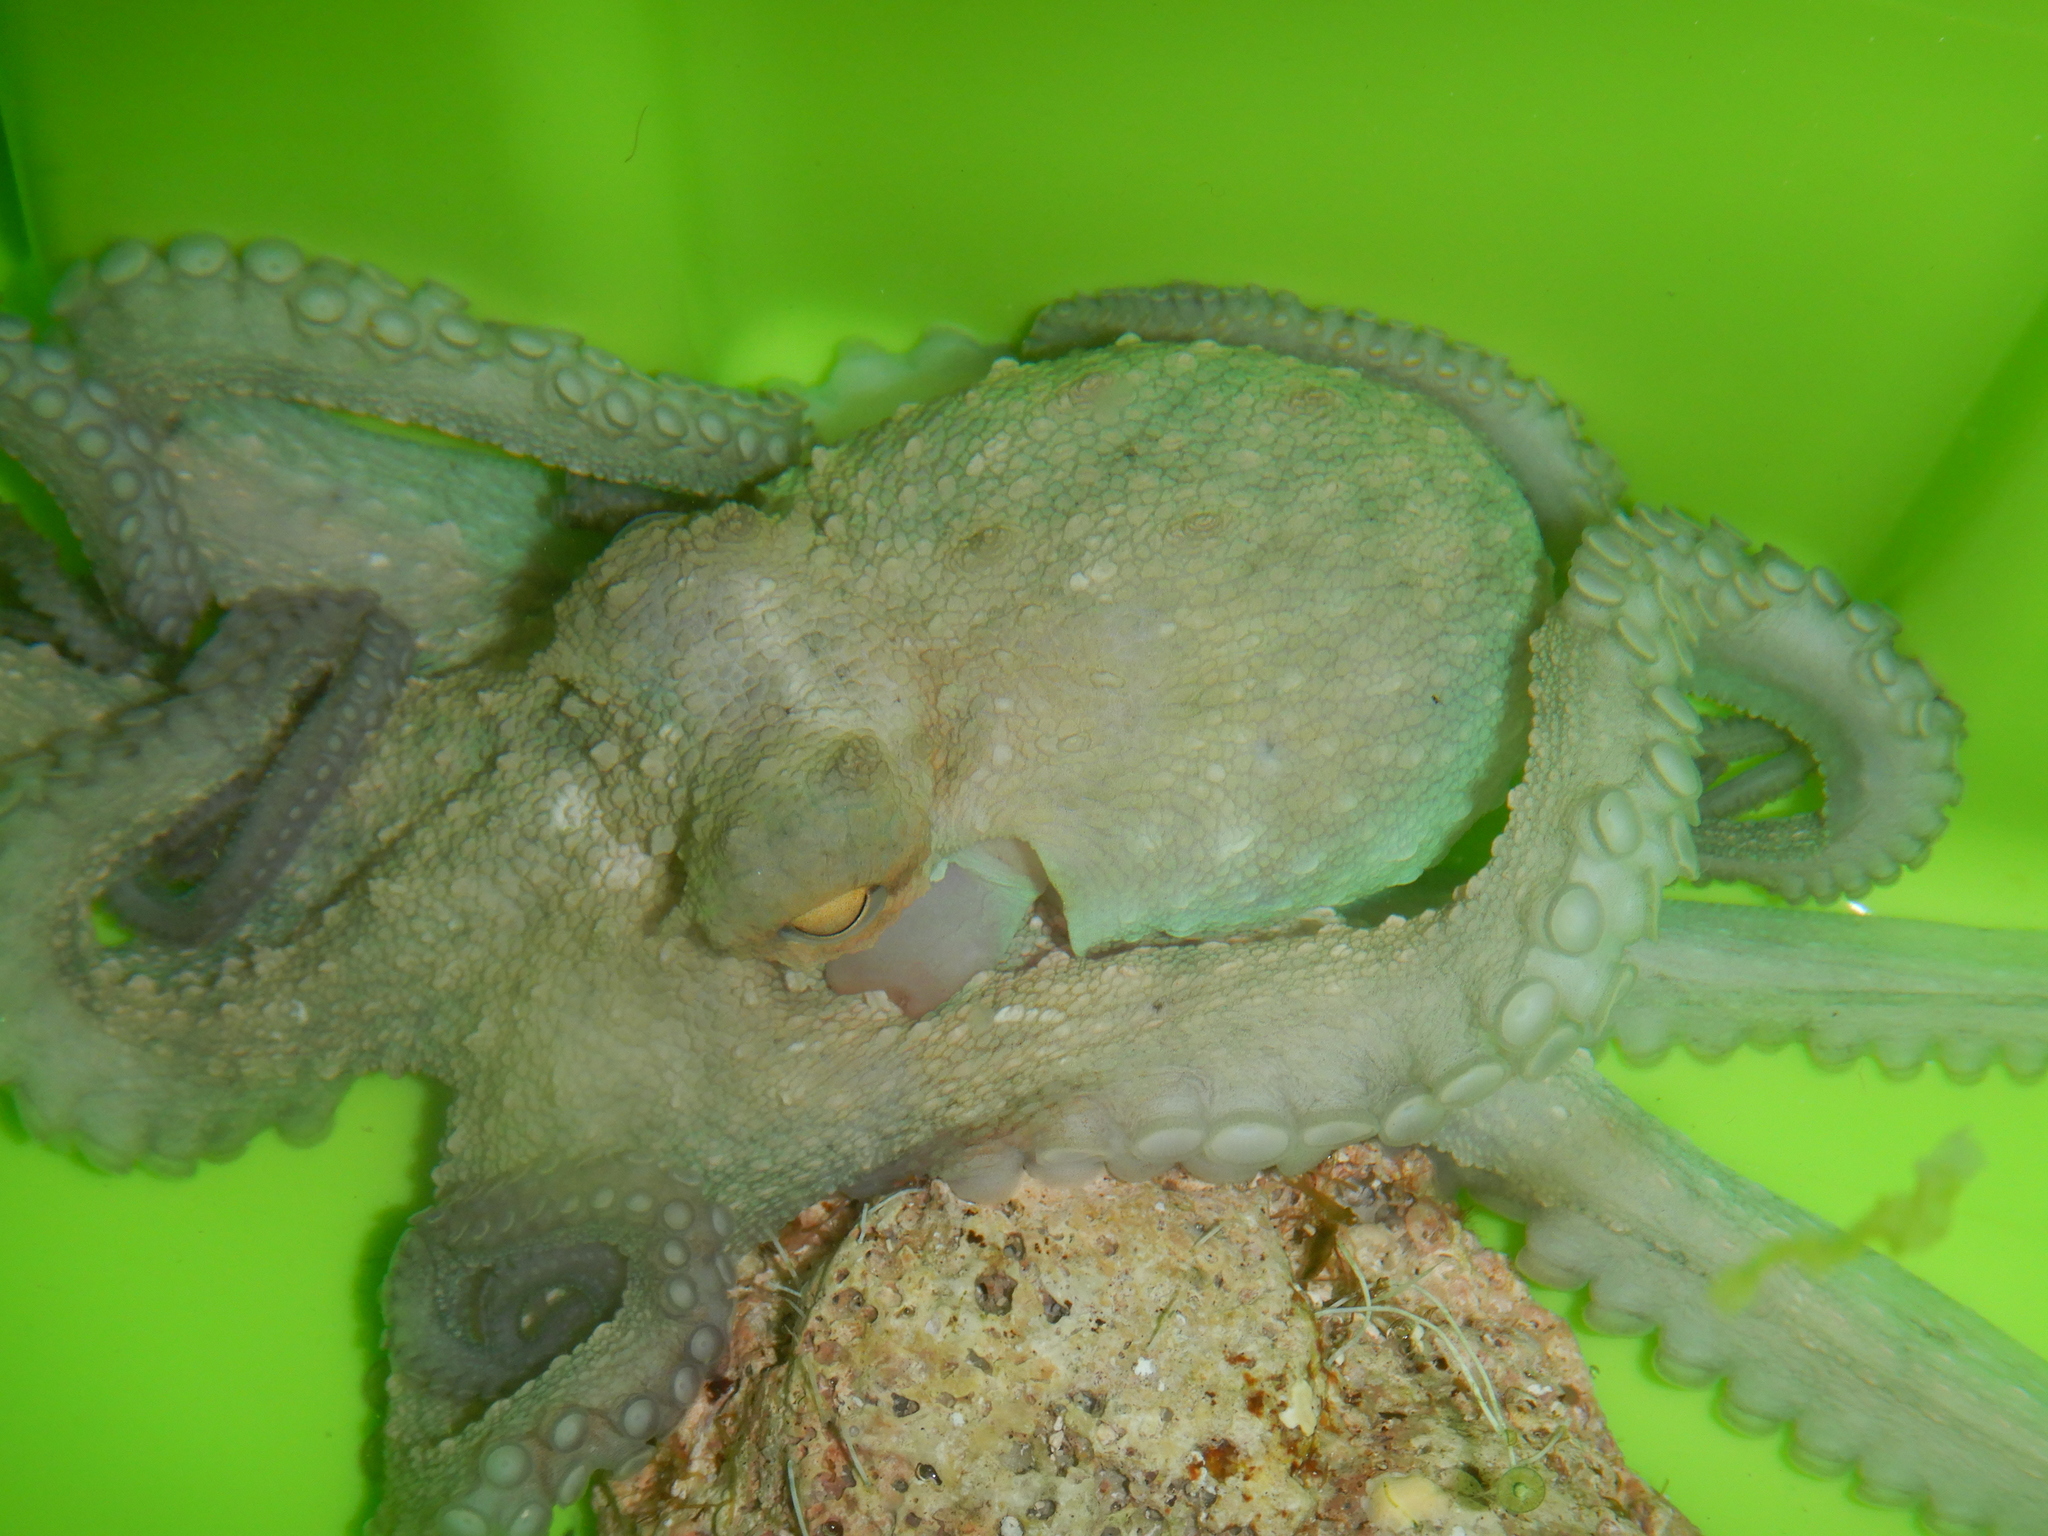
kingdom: Animalia
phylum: Mollusca
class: Cephalopoda
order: Octopoda
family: Octopodidae
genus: Octopus
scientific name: Octopus vulgaris
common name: Common octopus
